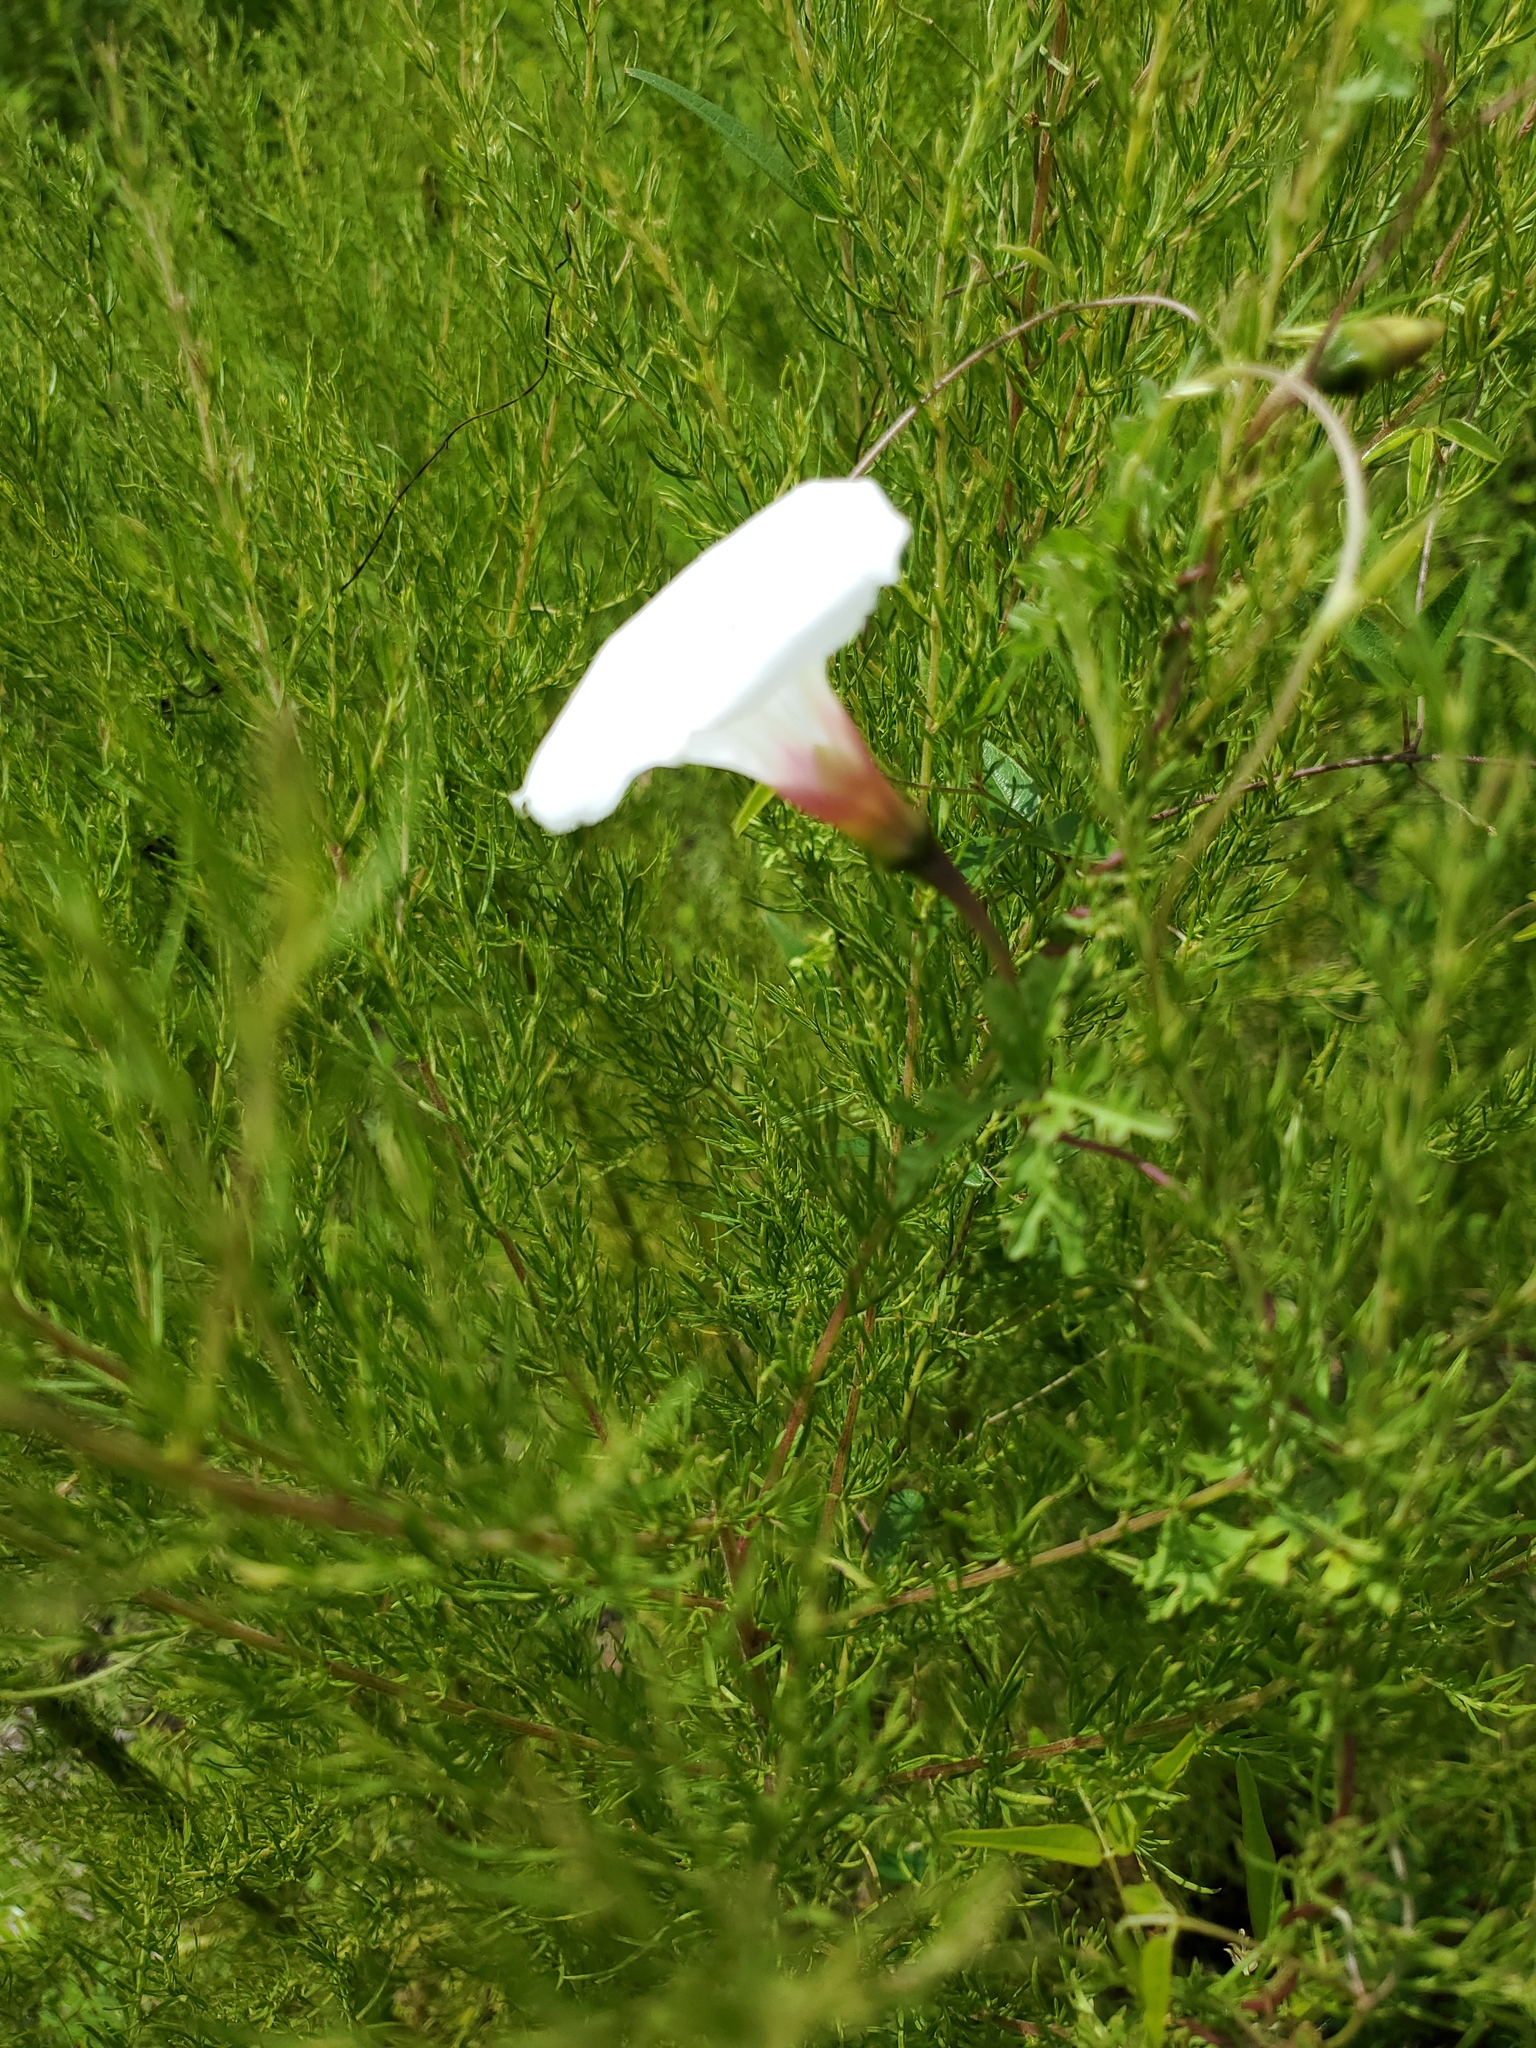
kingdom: Plantae
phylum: Tracheophyta
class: Magnoliopsida
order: Solanales
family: Convolvulaceae
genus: Distimake
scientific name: Distimake dissectus
